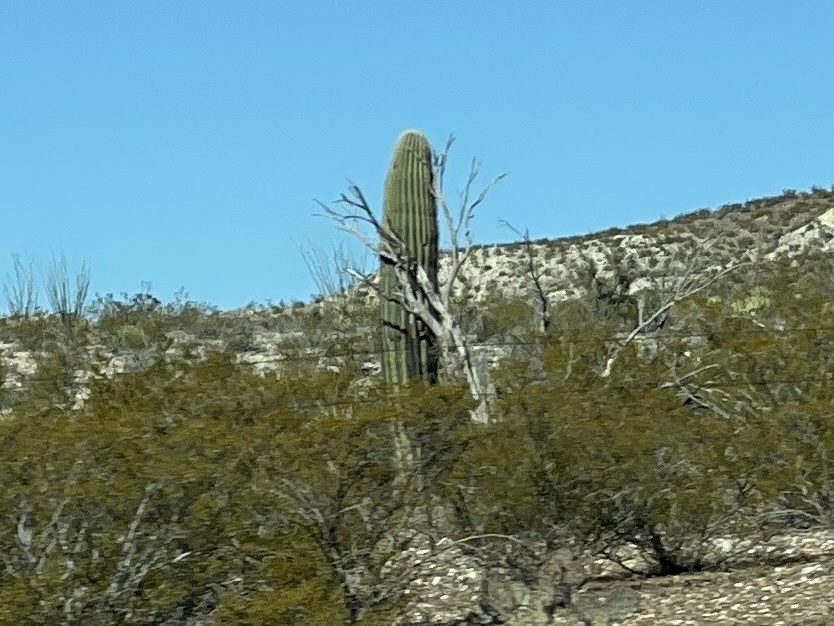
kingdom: Plantae
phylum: Tracheophyta
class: Magnoliopsida
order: Caryophyllales
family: Cactaceae
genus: Carnegiea
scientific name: Carnegiea gigantea
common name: Saguaro
